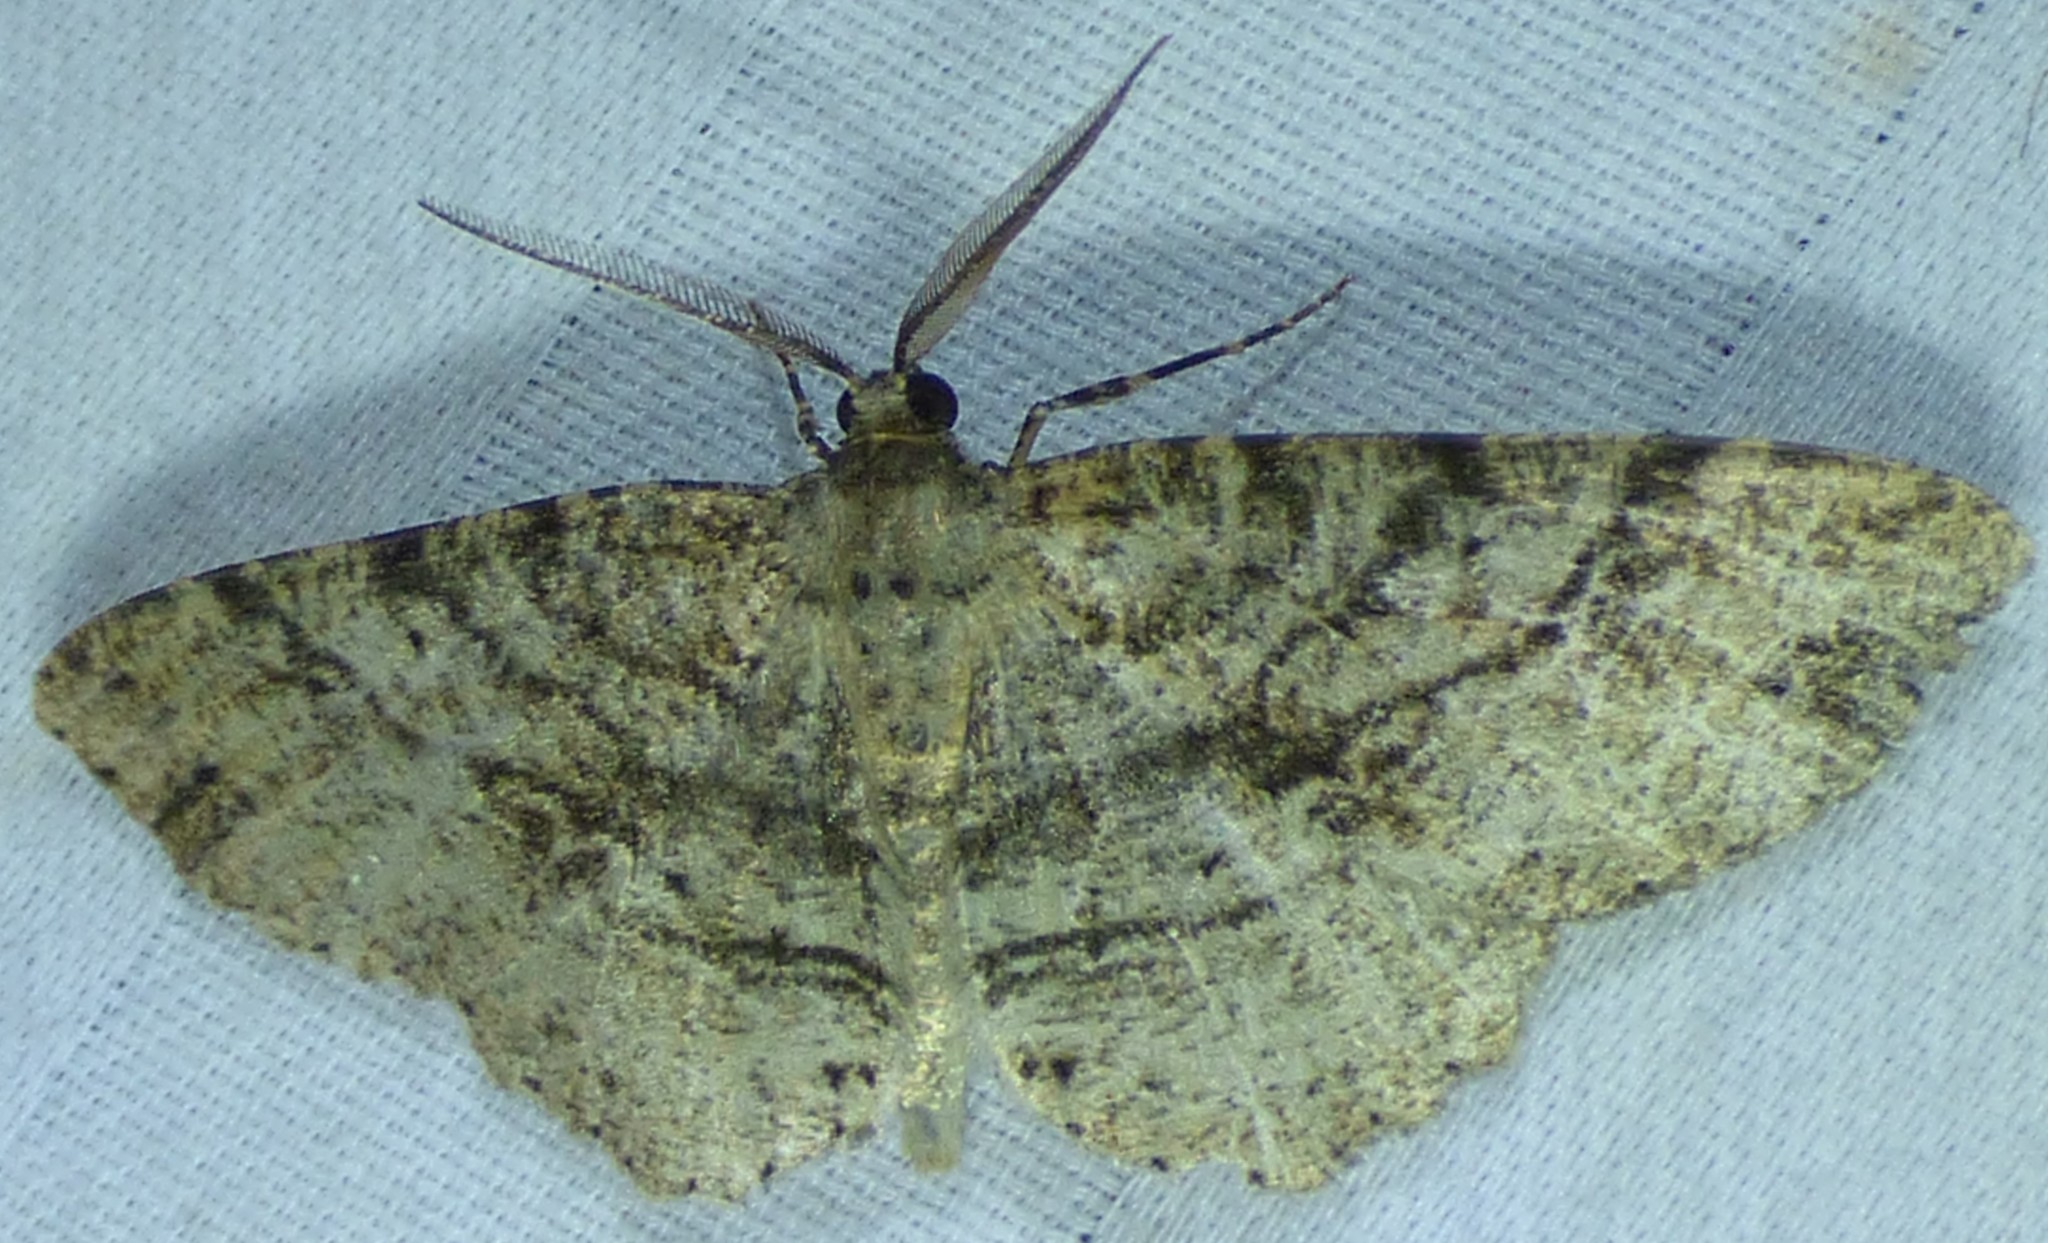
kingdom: Animalia
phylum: Arthropoda
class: Insecta
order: Lepidoptera
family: Geometridae
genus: Melanolophia
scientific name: Melanolophia canadaria
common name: Canadian melanolophia
